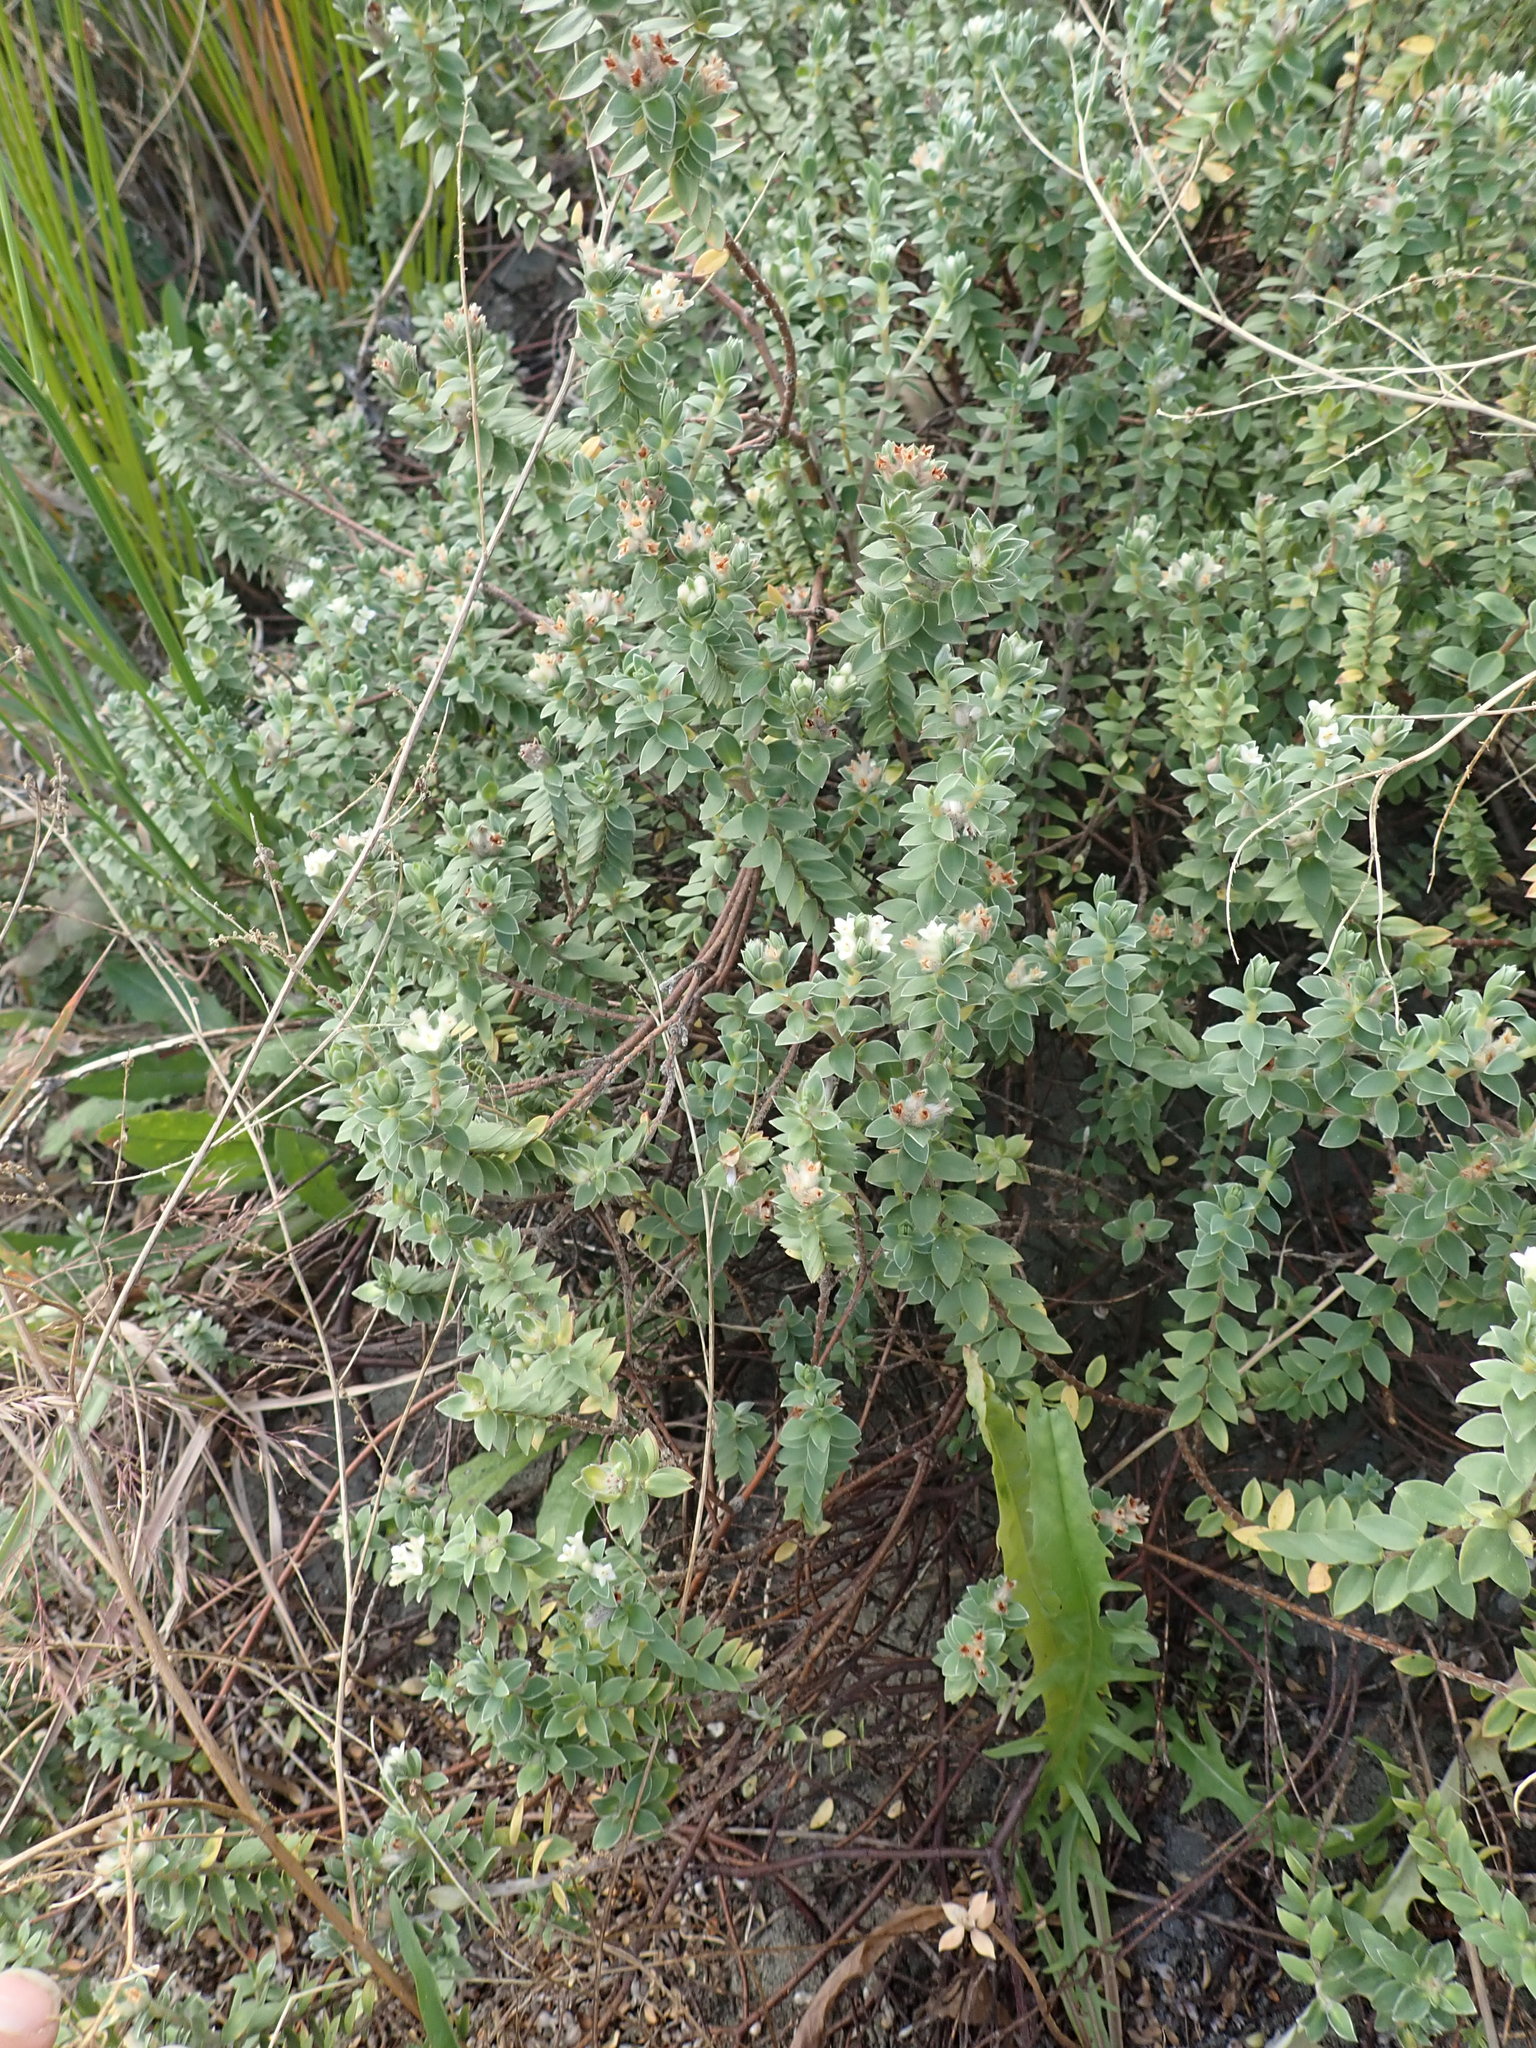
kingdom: Plantae
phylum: Tracheophyta
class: Magnoliopsida
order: Malvales
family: Thymelaeaceae
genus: Pimelea
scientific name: Pimelea villosa
